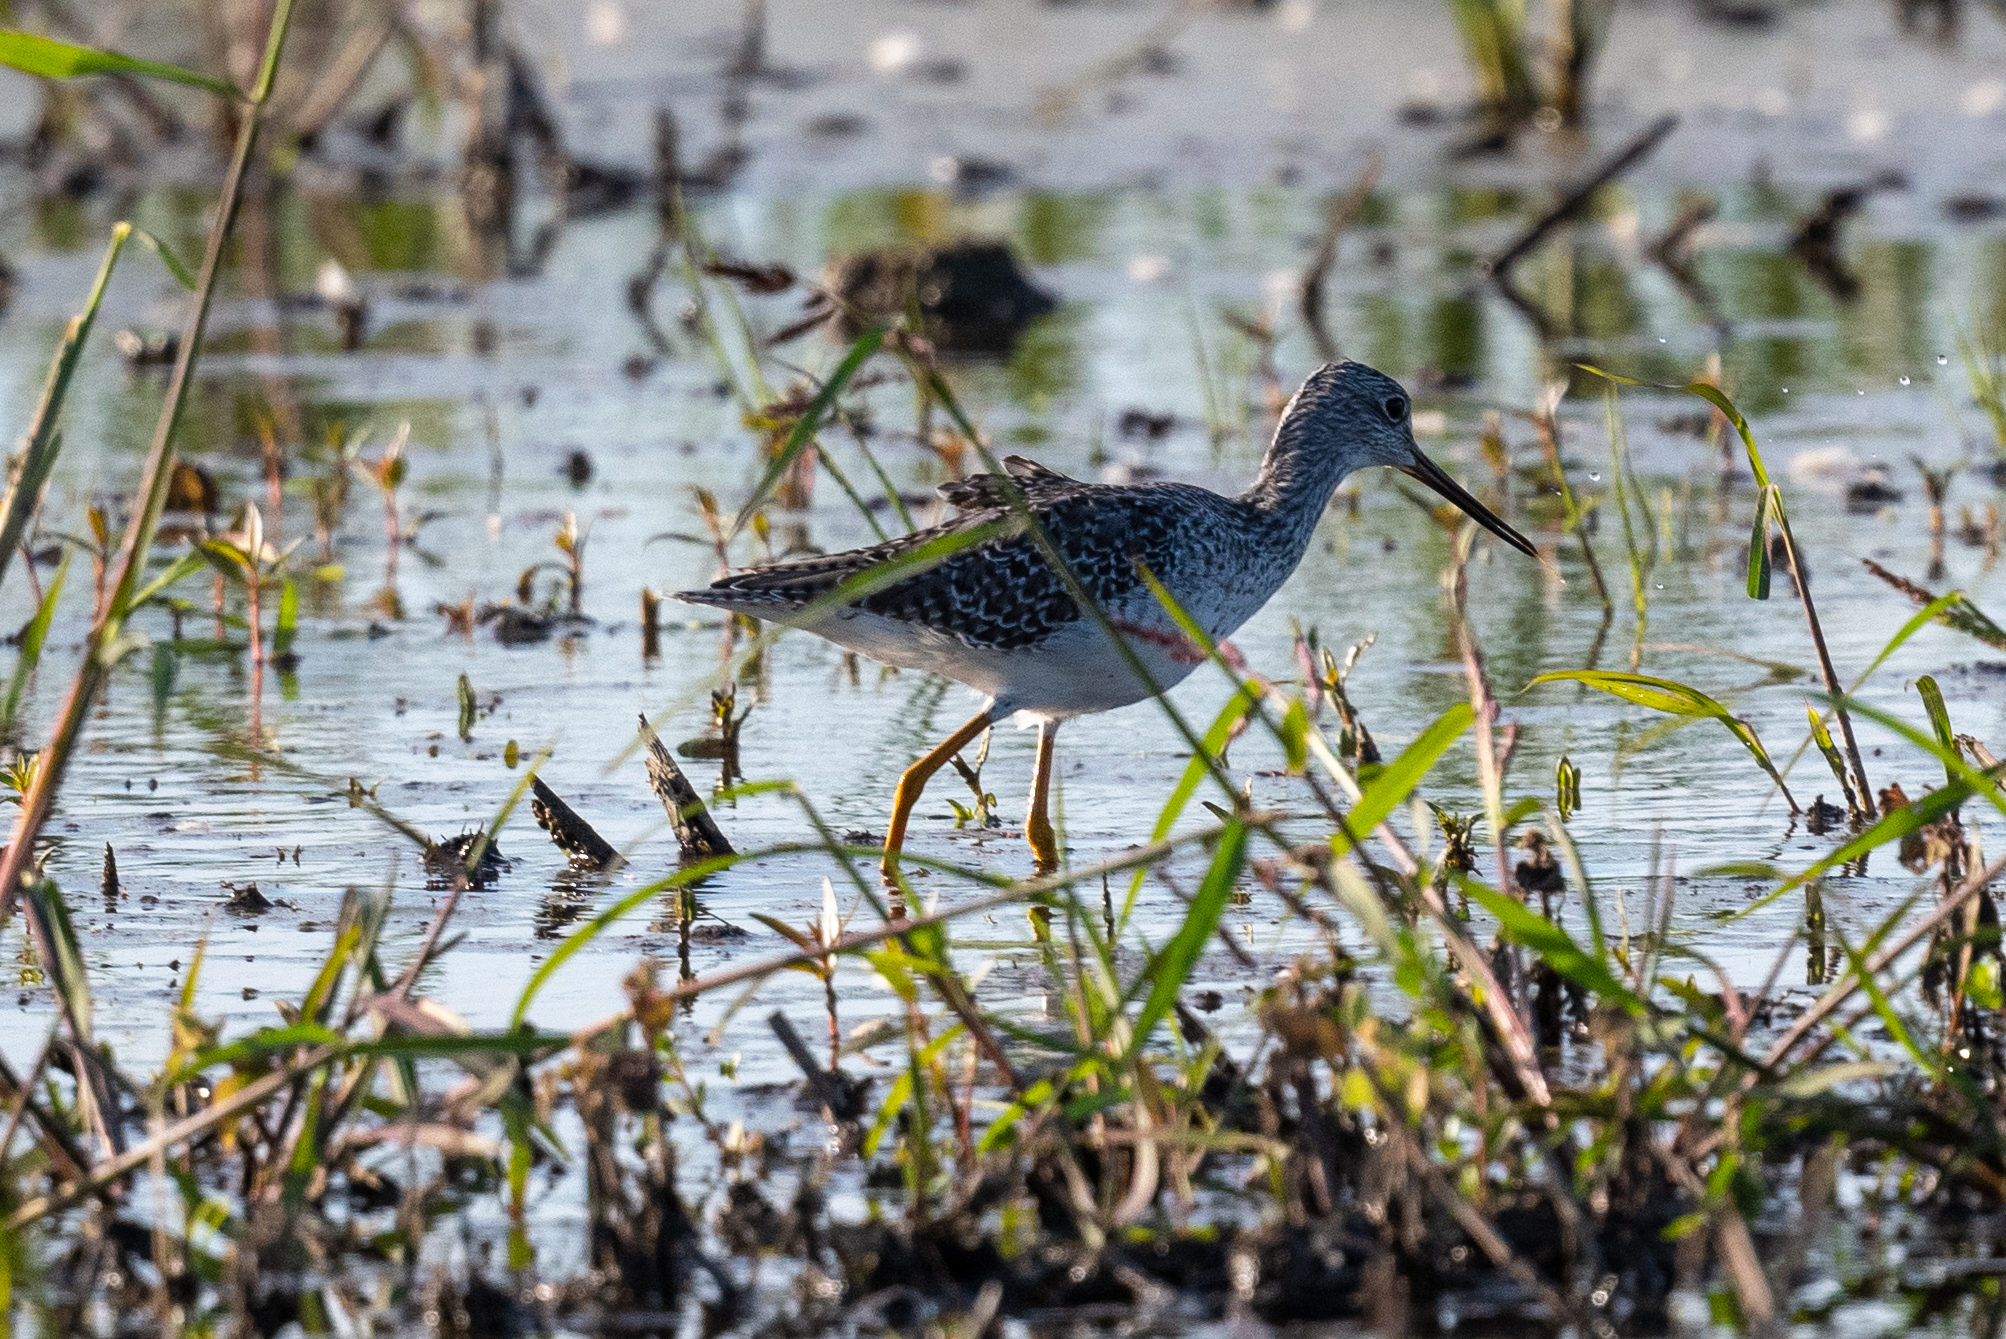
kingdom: Animalia
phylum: Chordata
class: Aves
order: Charadriiformes
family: Scolopacidae
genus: Tringa
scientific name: Tringa melanoleuca
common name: Greater yellowlegs
